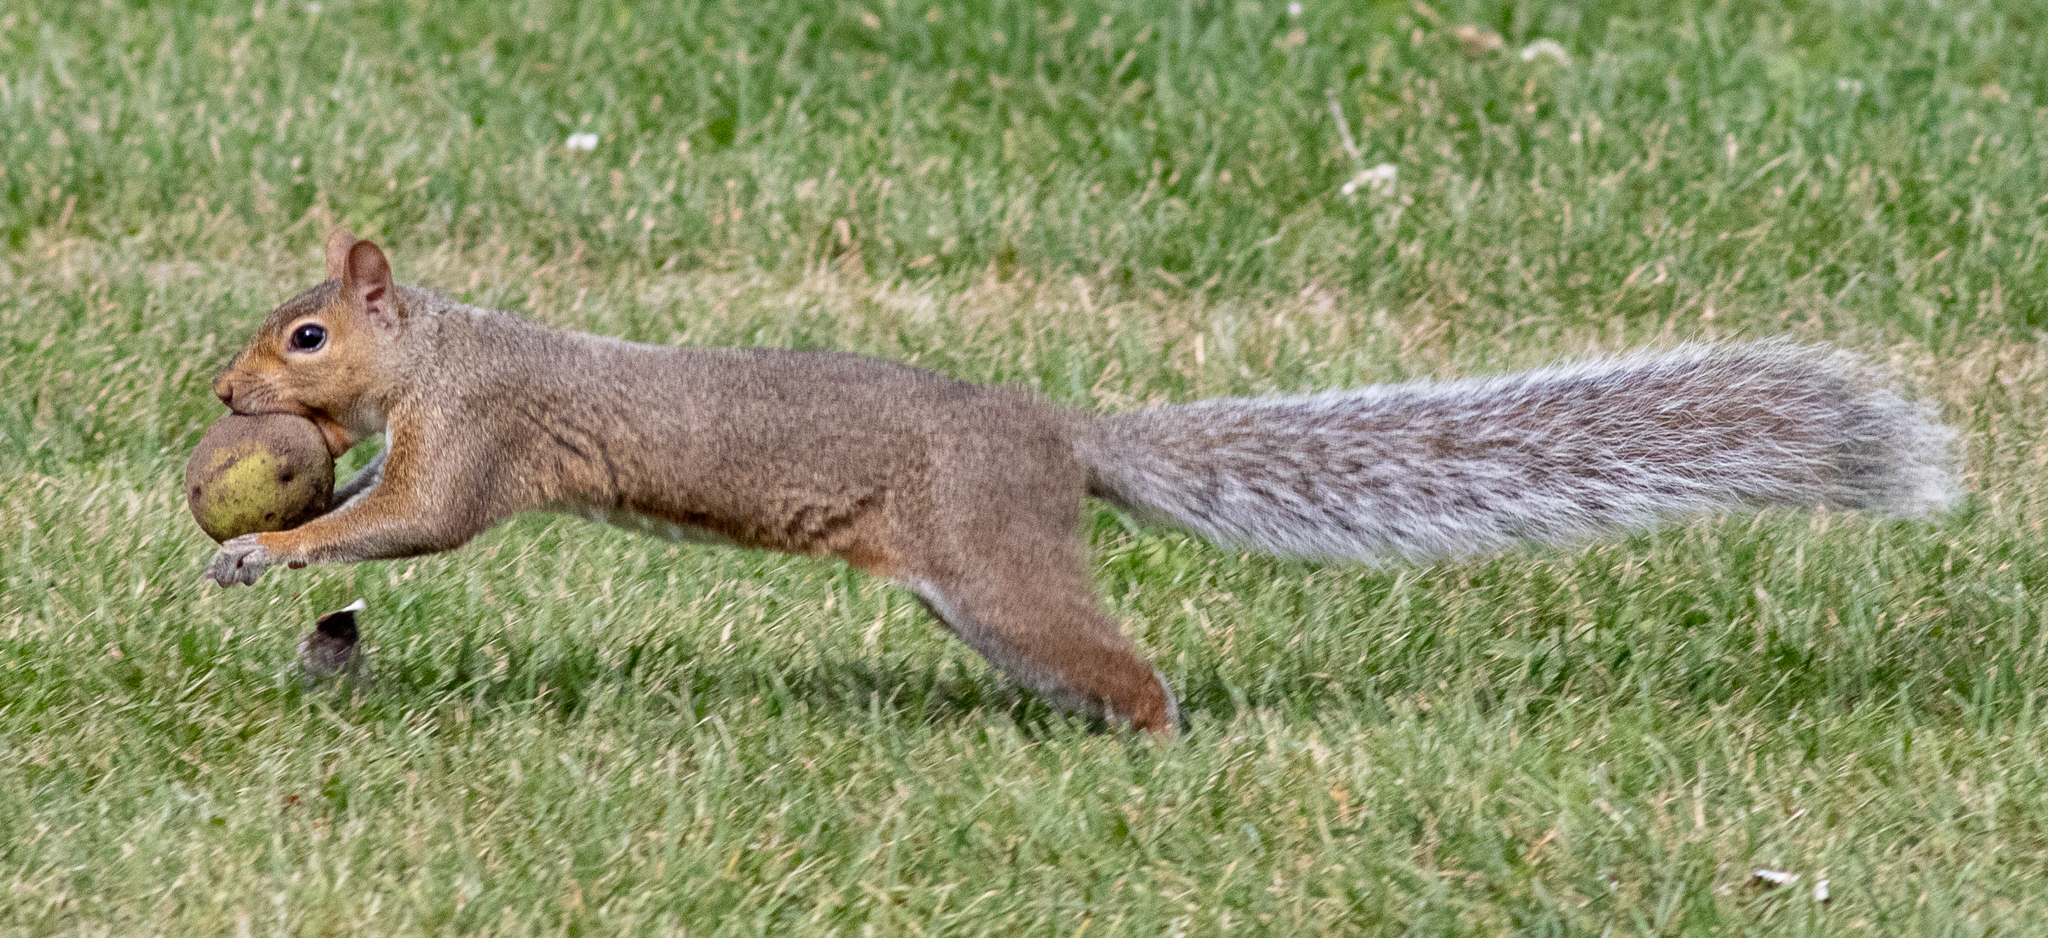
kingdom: Animalia
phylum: Chordata
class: Mammalia
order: Rodentia
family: Sciuridae
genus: Sciurus
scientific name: Sciurus carolinensis
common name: Eastern gray squirrel
